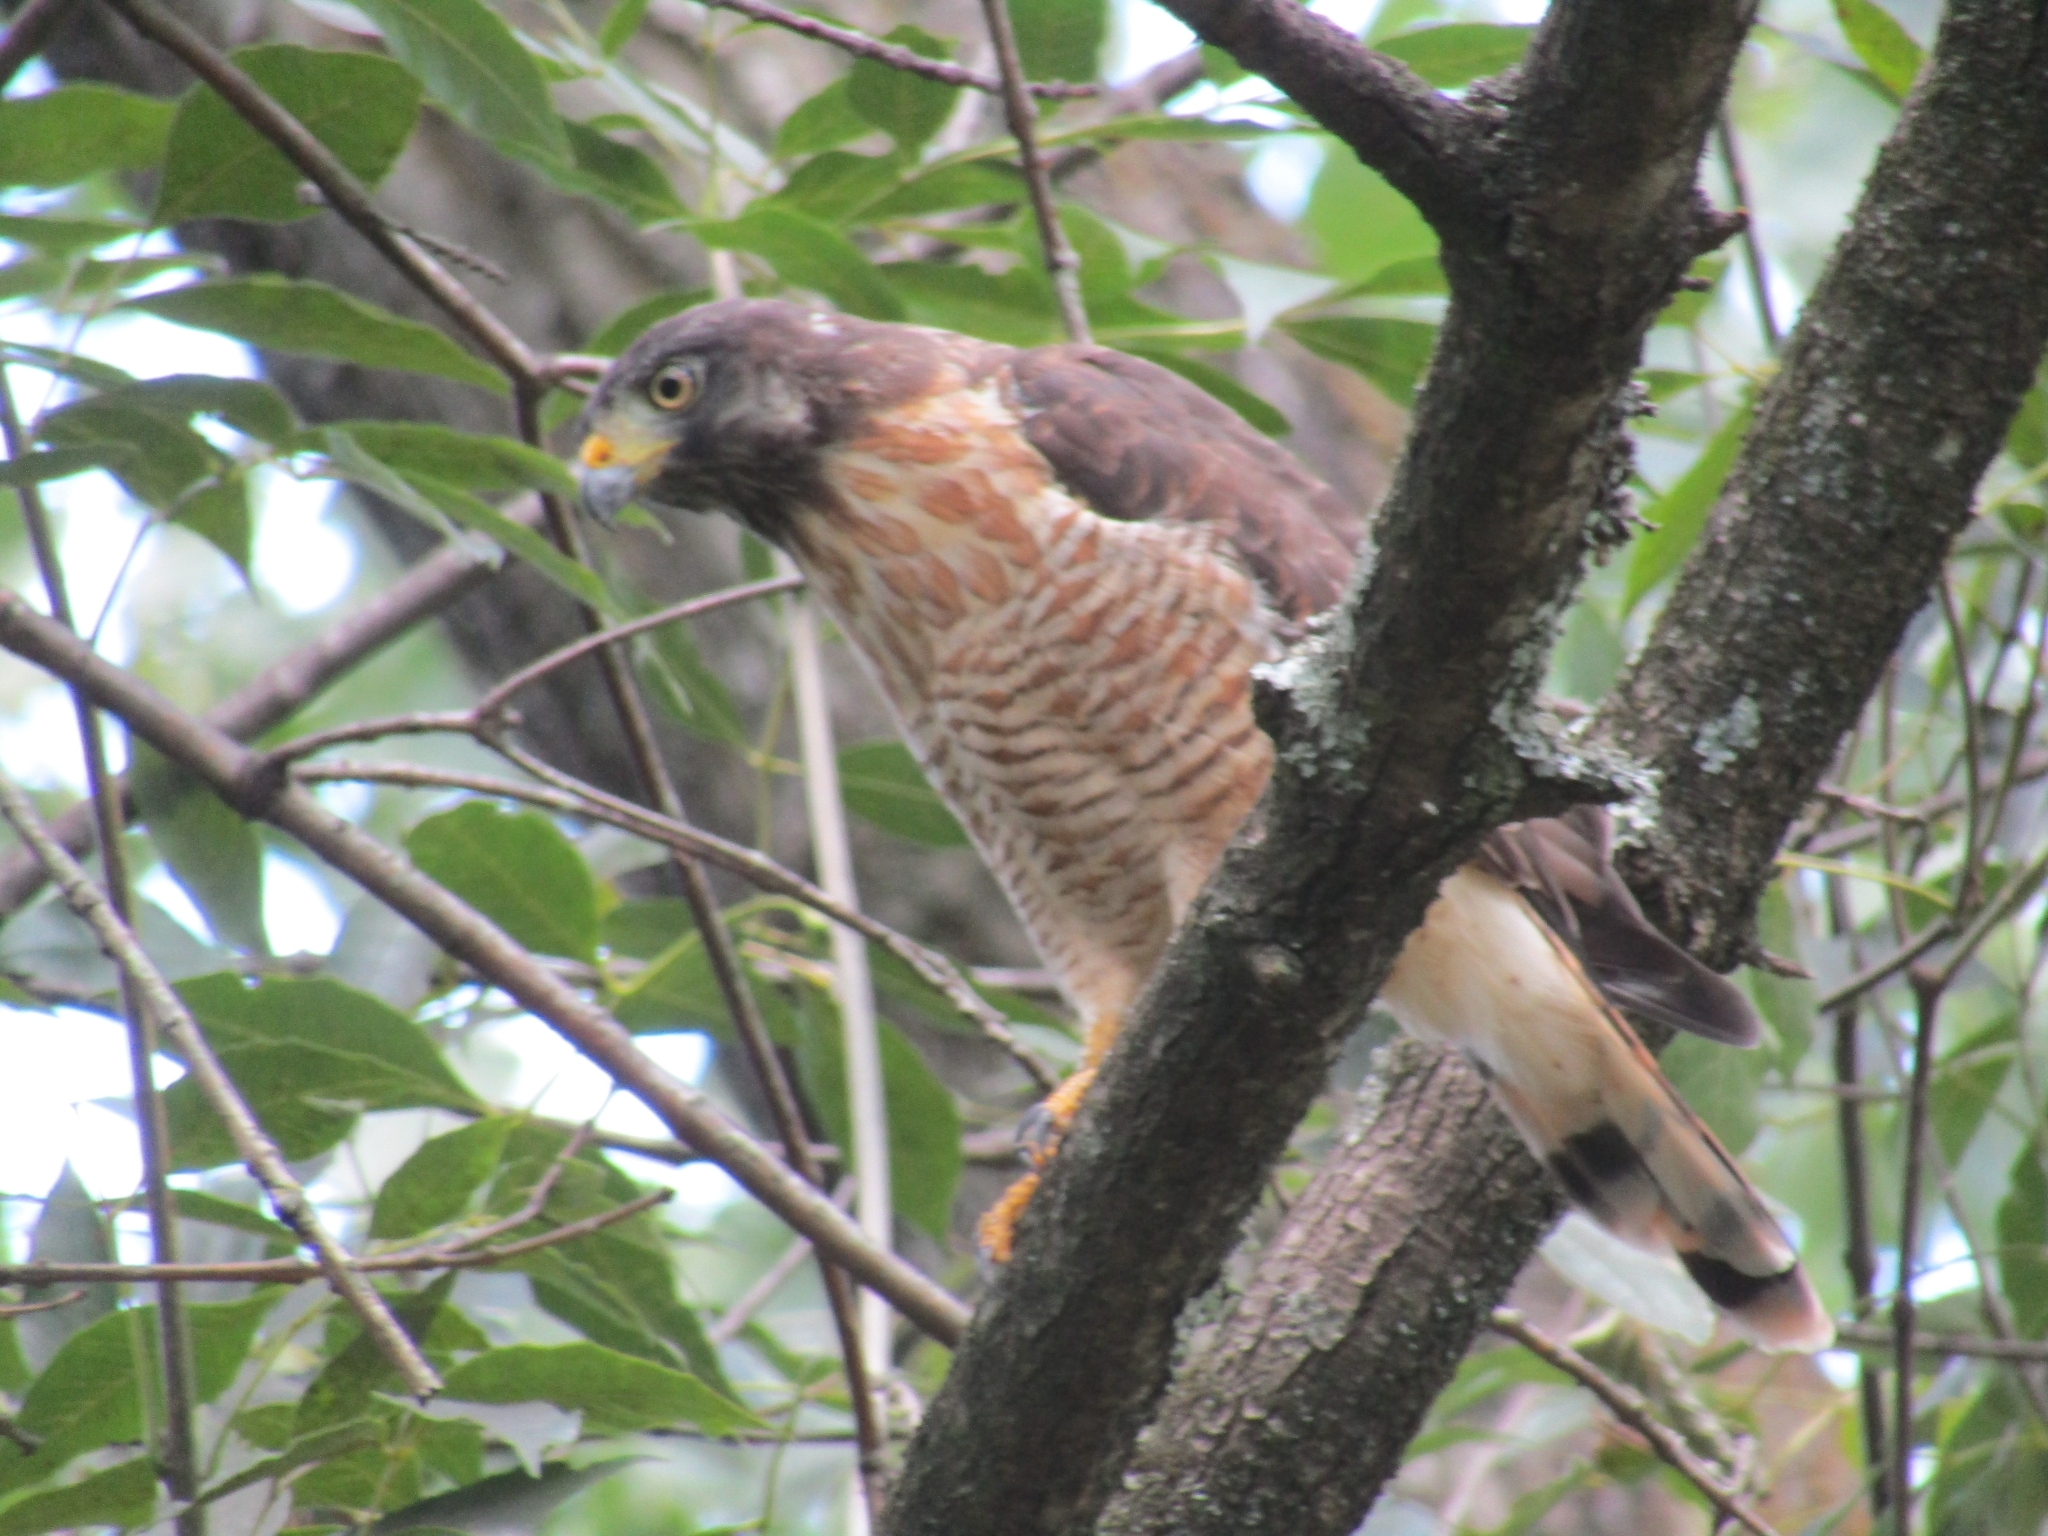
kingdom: Animalia
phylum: Chordata
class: Aves
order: Accipitriformes
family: Accipitridae
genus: Rupornis
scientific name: Rupornis magnirostris
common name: Roadside hawk
